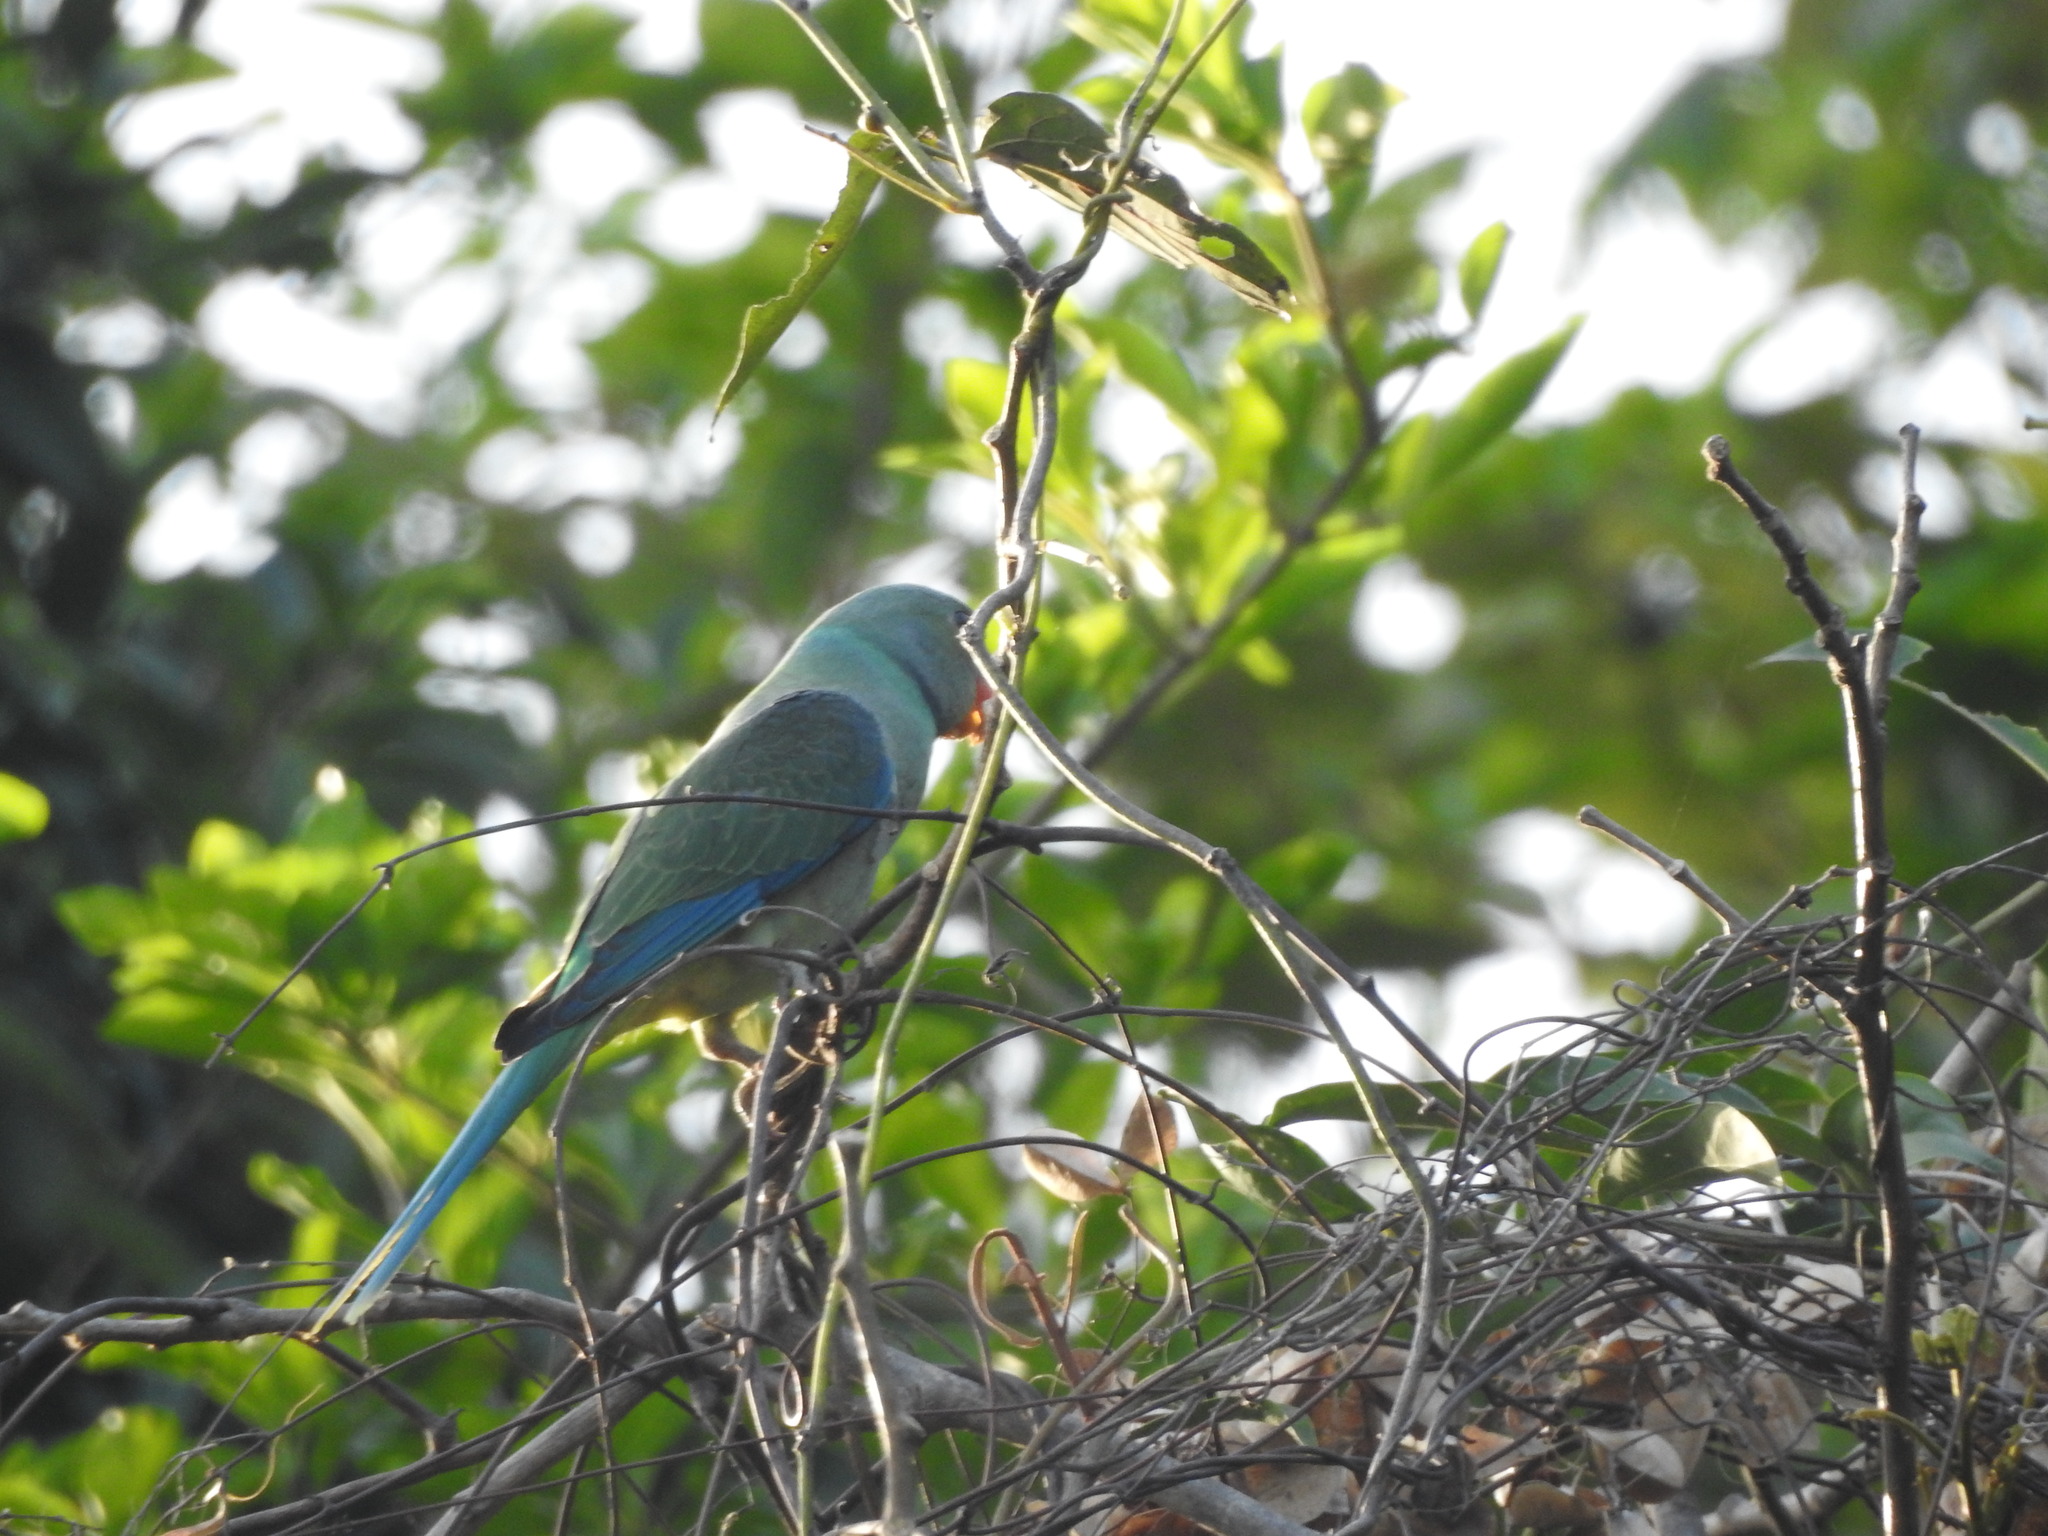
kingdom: Animalia
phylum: Chordata
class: Aves
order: Psittaciformes
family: Psittacidae
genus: Psittacula
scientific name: Psittacula columboides
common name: Blue-winged parakeet
